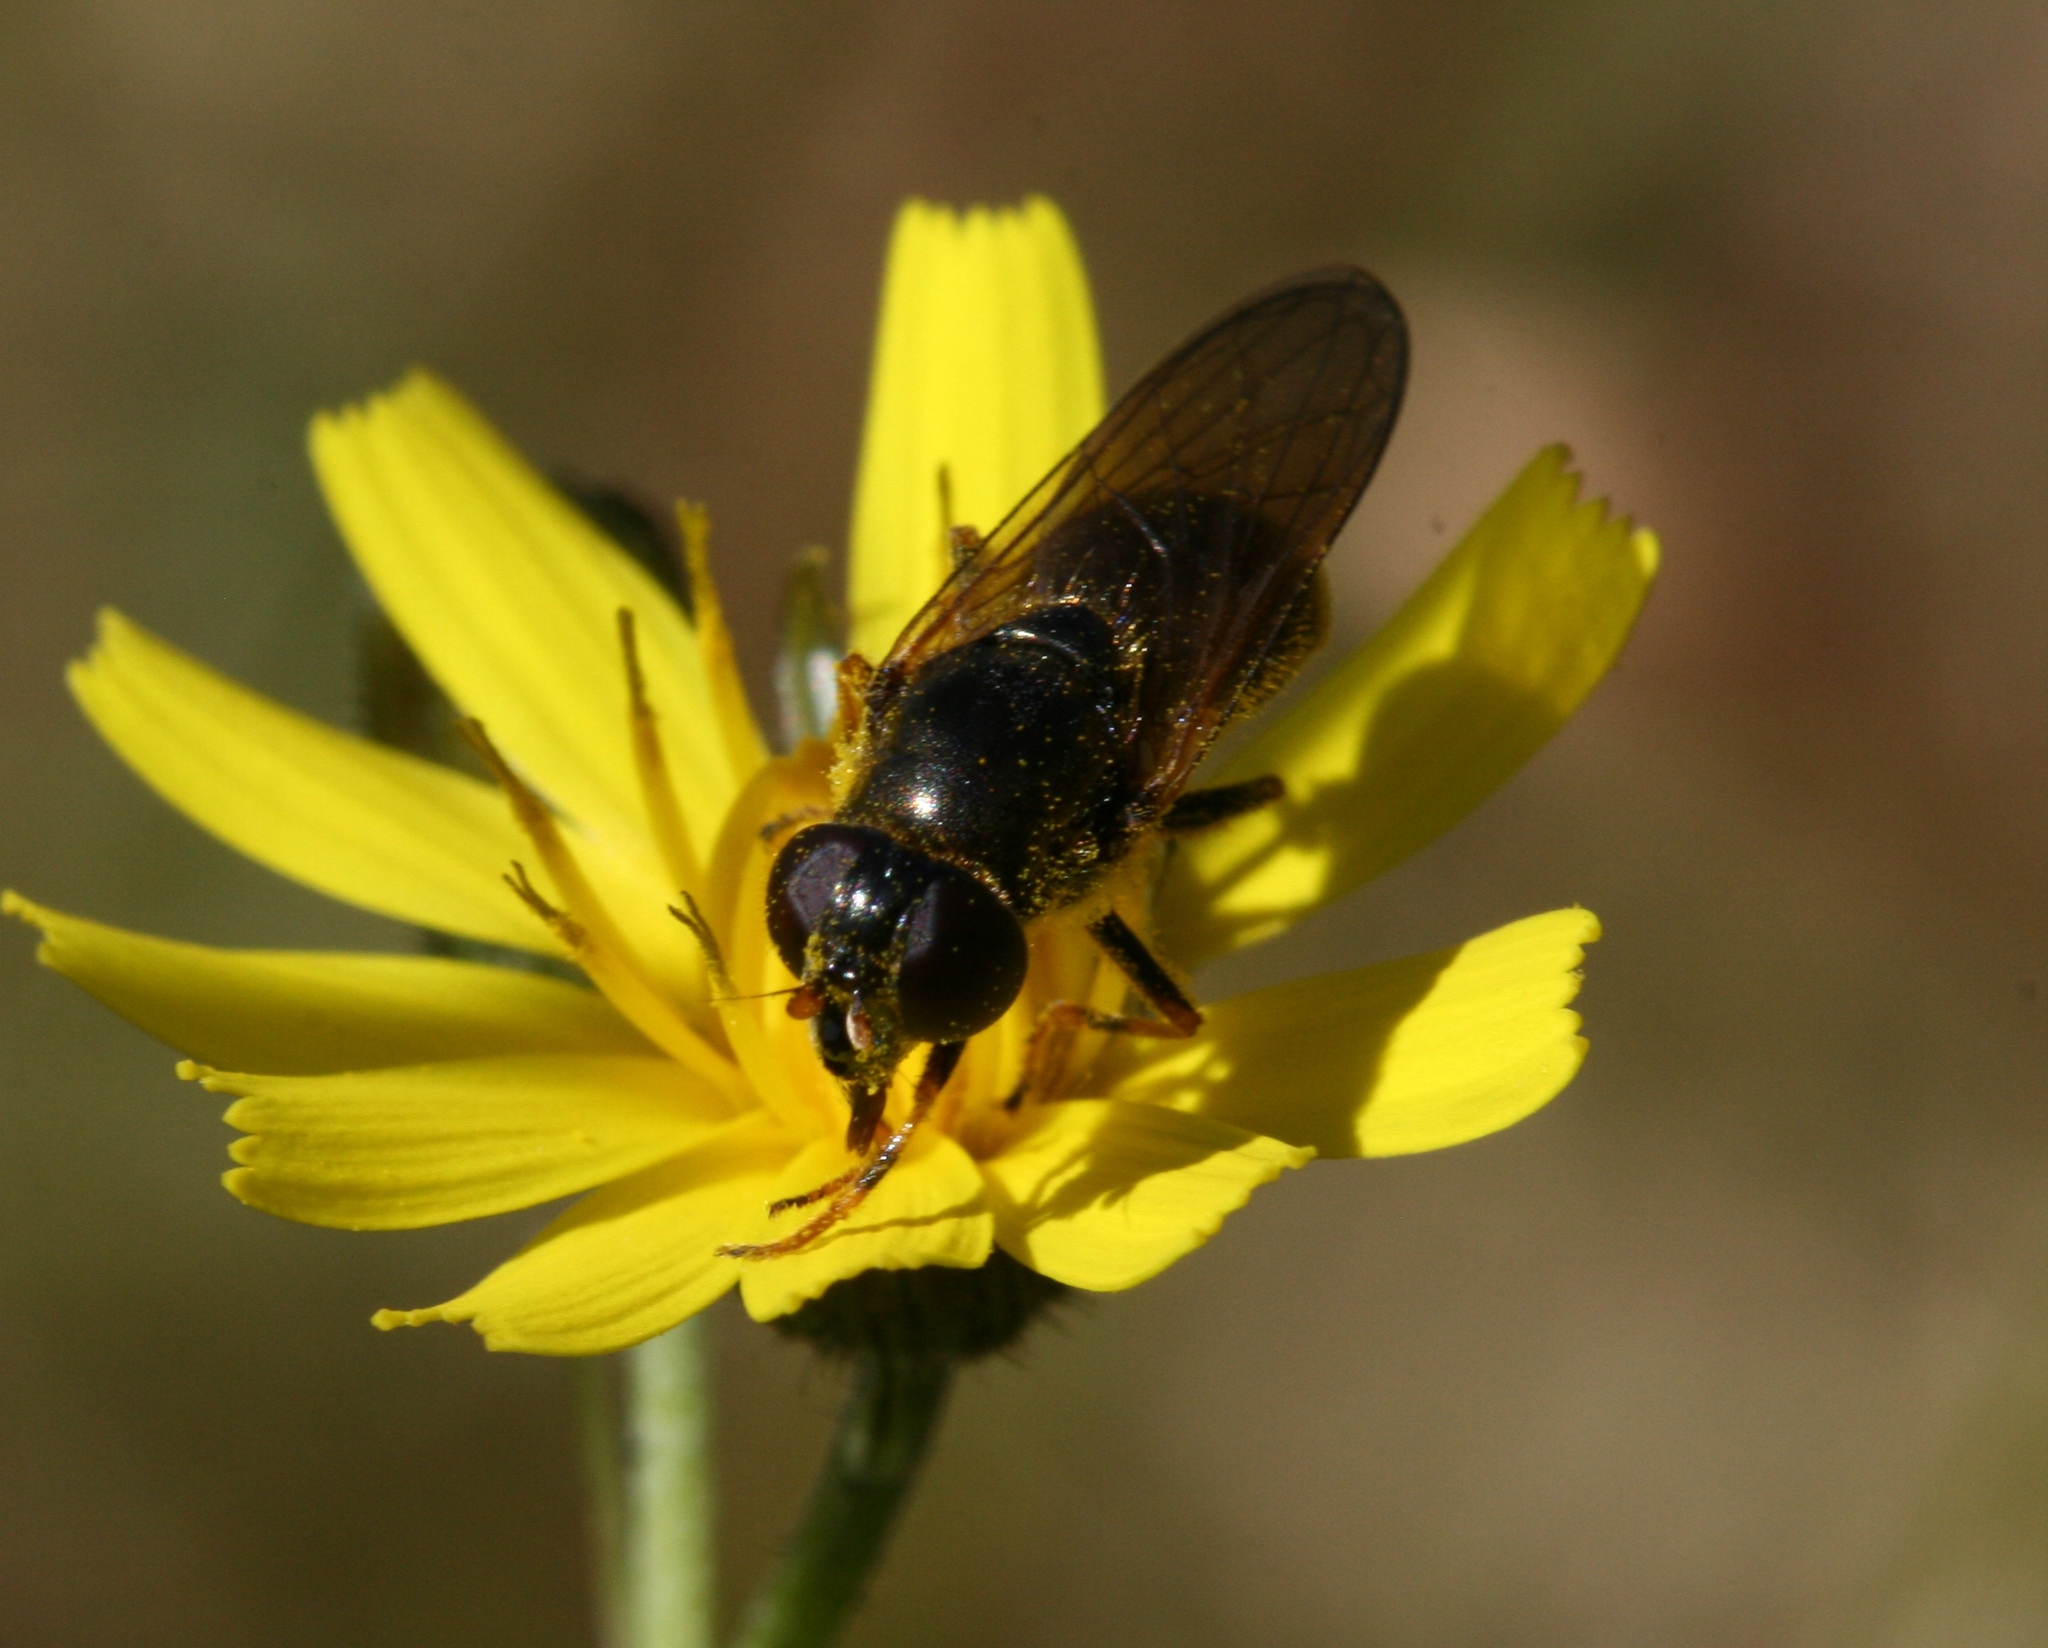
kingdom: Animalia
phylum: Arthropoda
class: Insecta
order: Diptera
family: Syrphidae
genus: Cheilosia
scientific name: Cheilosia
